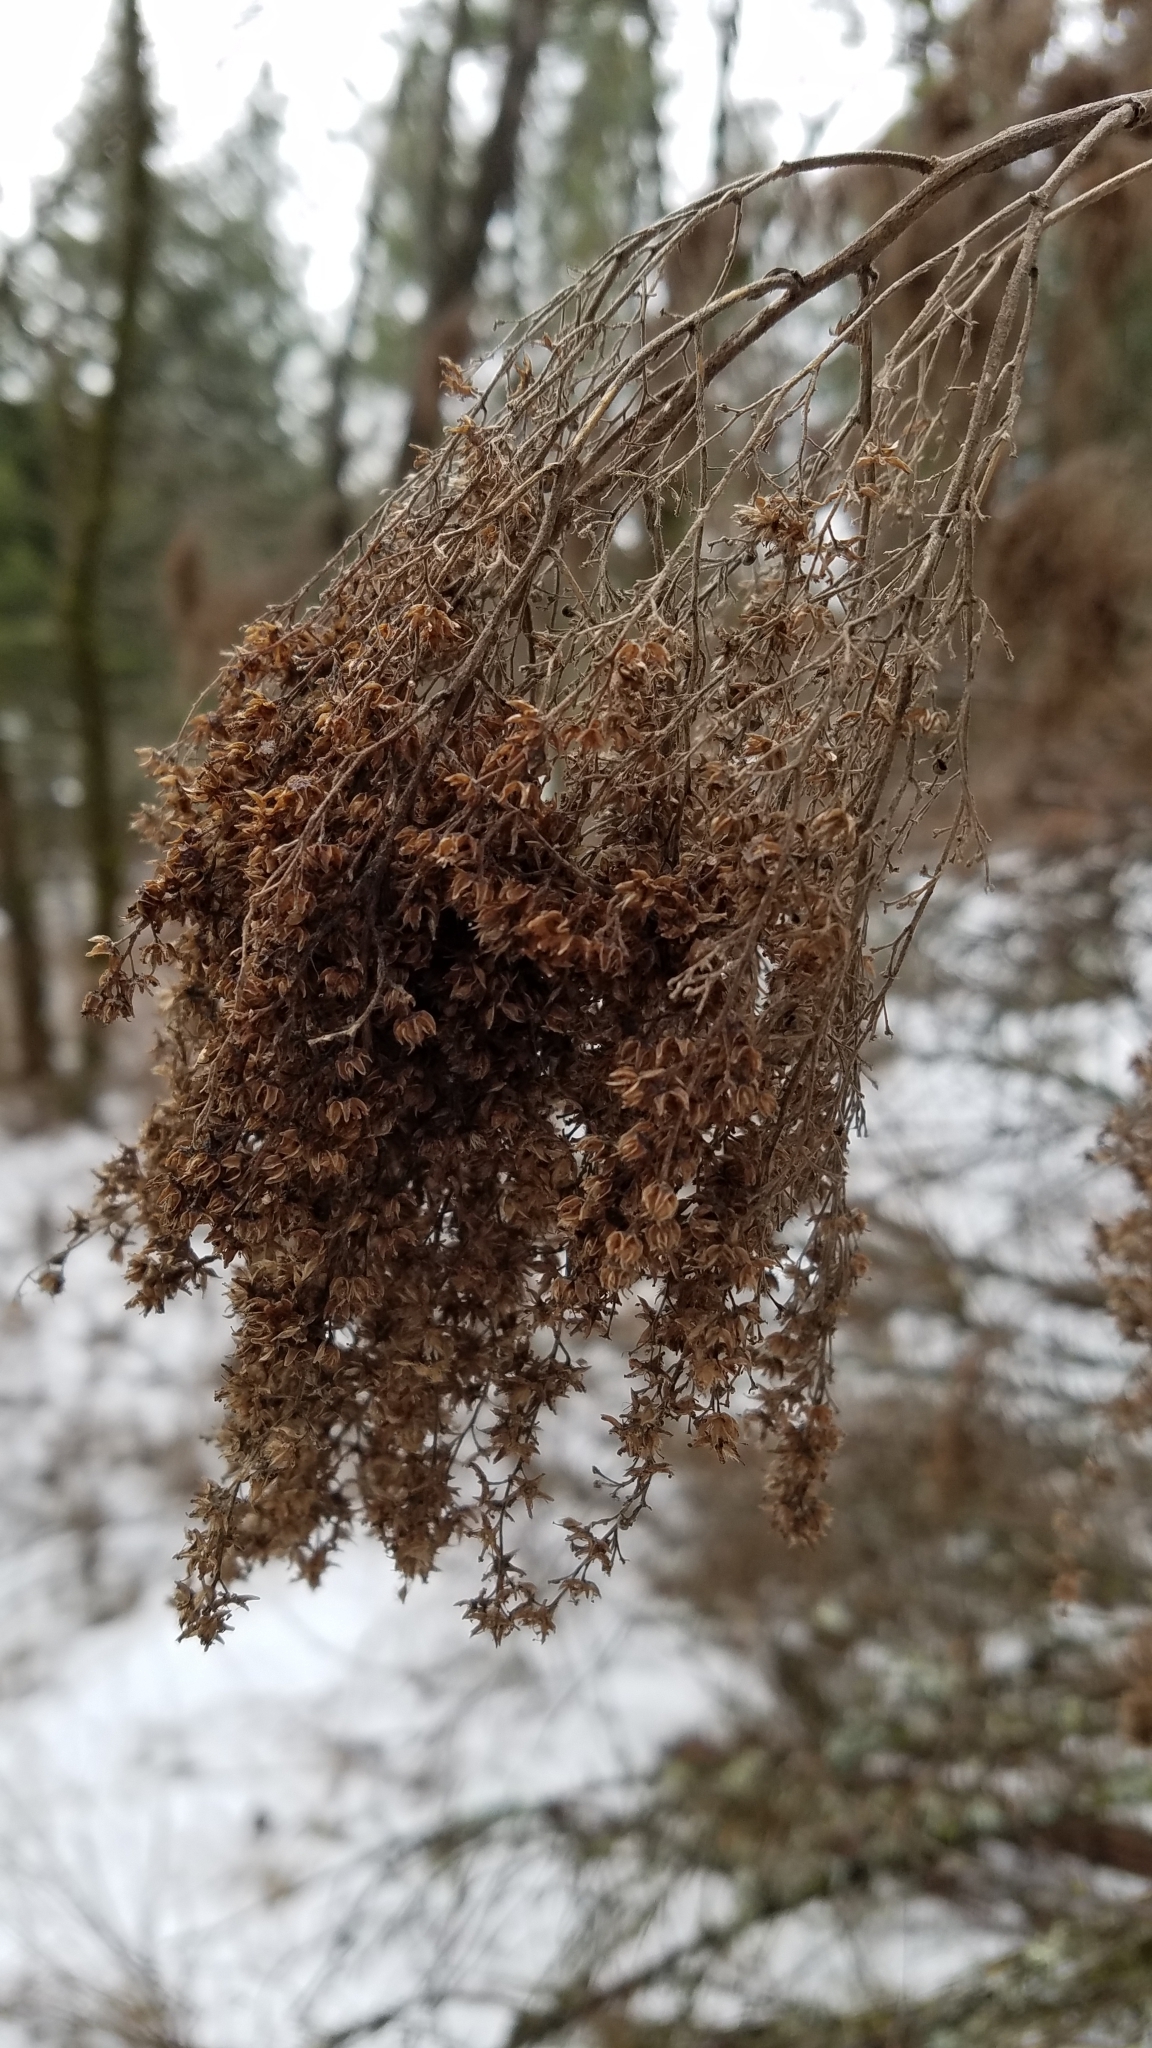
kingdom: Plantae
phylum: Tracheophyta
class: Magnoliopsida
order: Rosales
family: Rosaceae
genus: Holodiscus
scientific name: Holodiscus discolor
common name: Oceanspray
